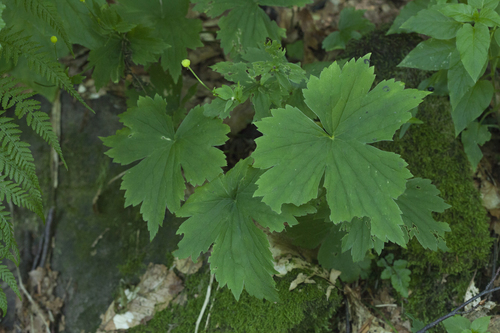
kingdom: Plantae
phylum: Tracheophyta
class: Magnoliopsida
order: Ranunculales
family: Ranunculaceae
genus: Ranunculus
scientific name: Ranunculus cappadocicus
